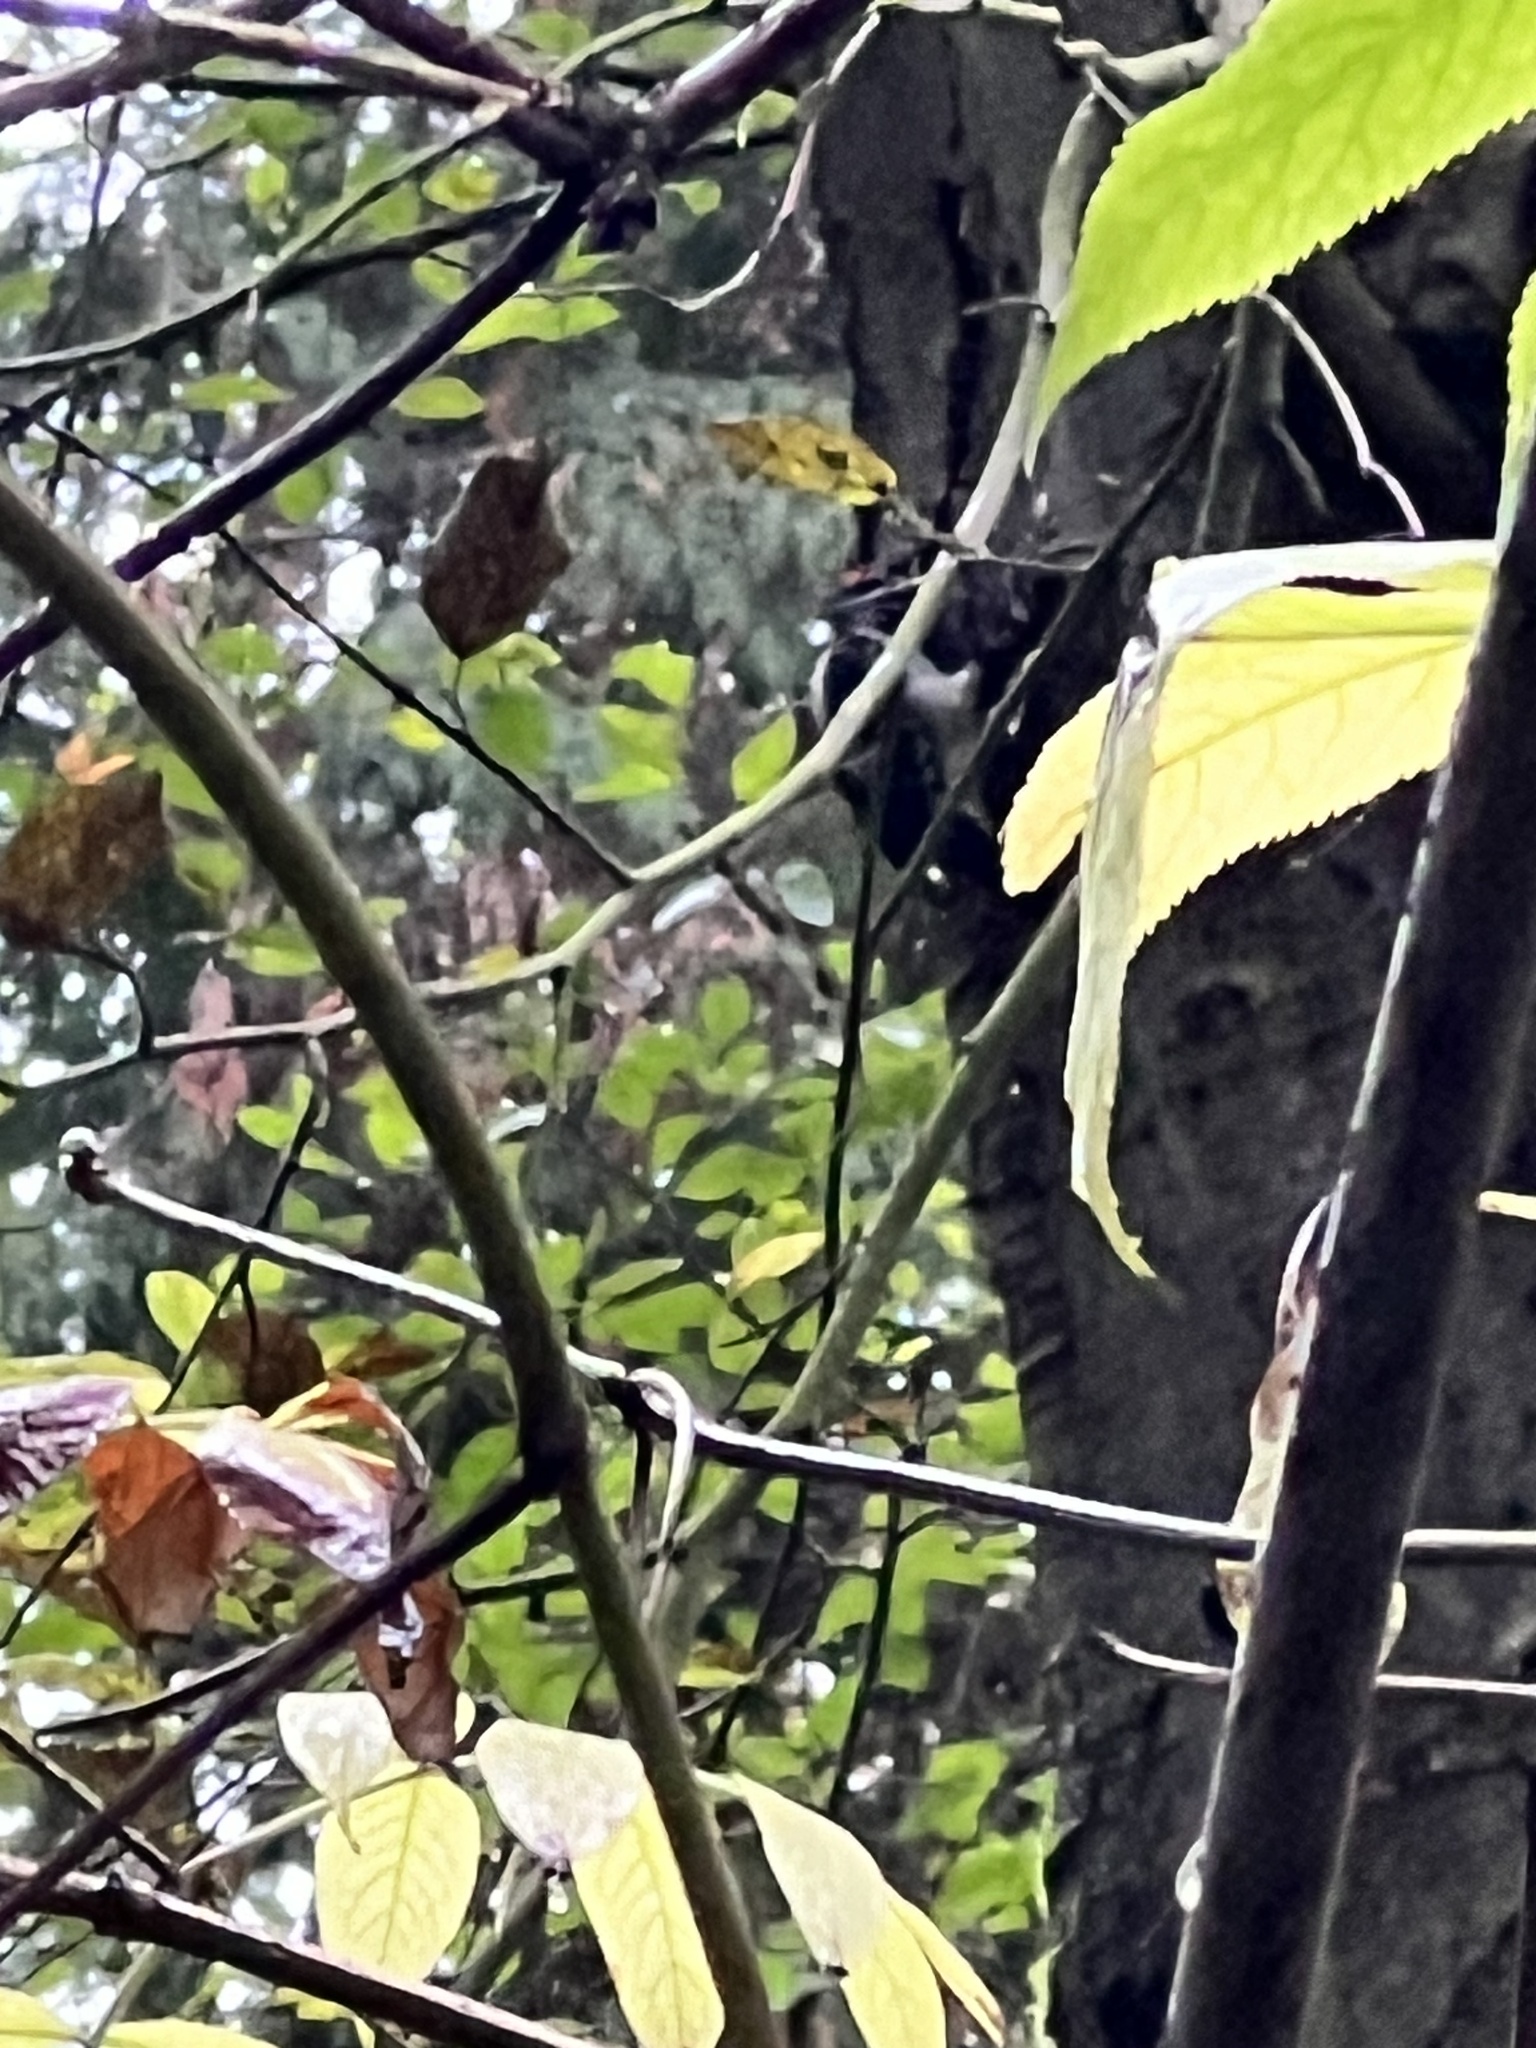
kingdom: Animalia
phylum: Chordata
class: Aves
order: Piciformes
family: Picidae
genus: Leuconotopicus
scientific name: Leuconotopicus villosus
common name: Hairy woodpecker
